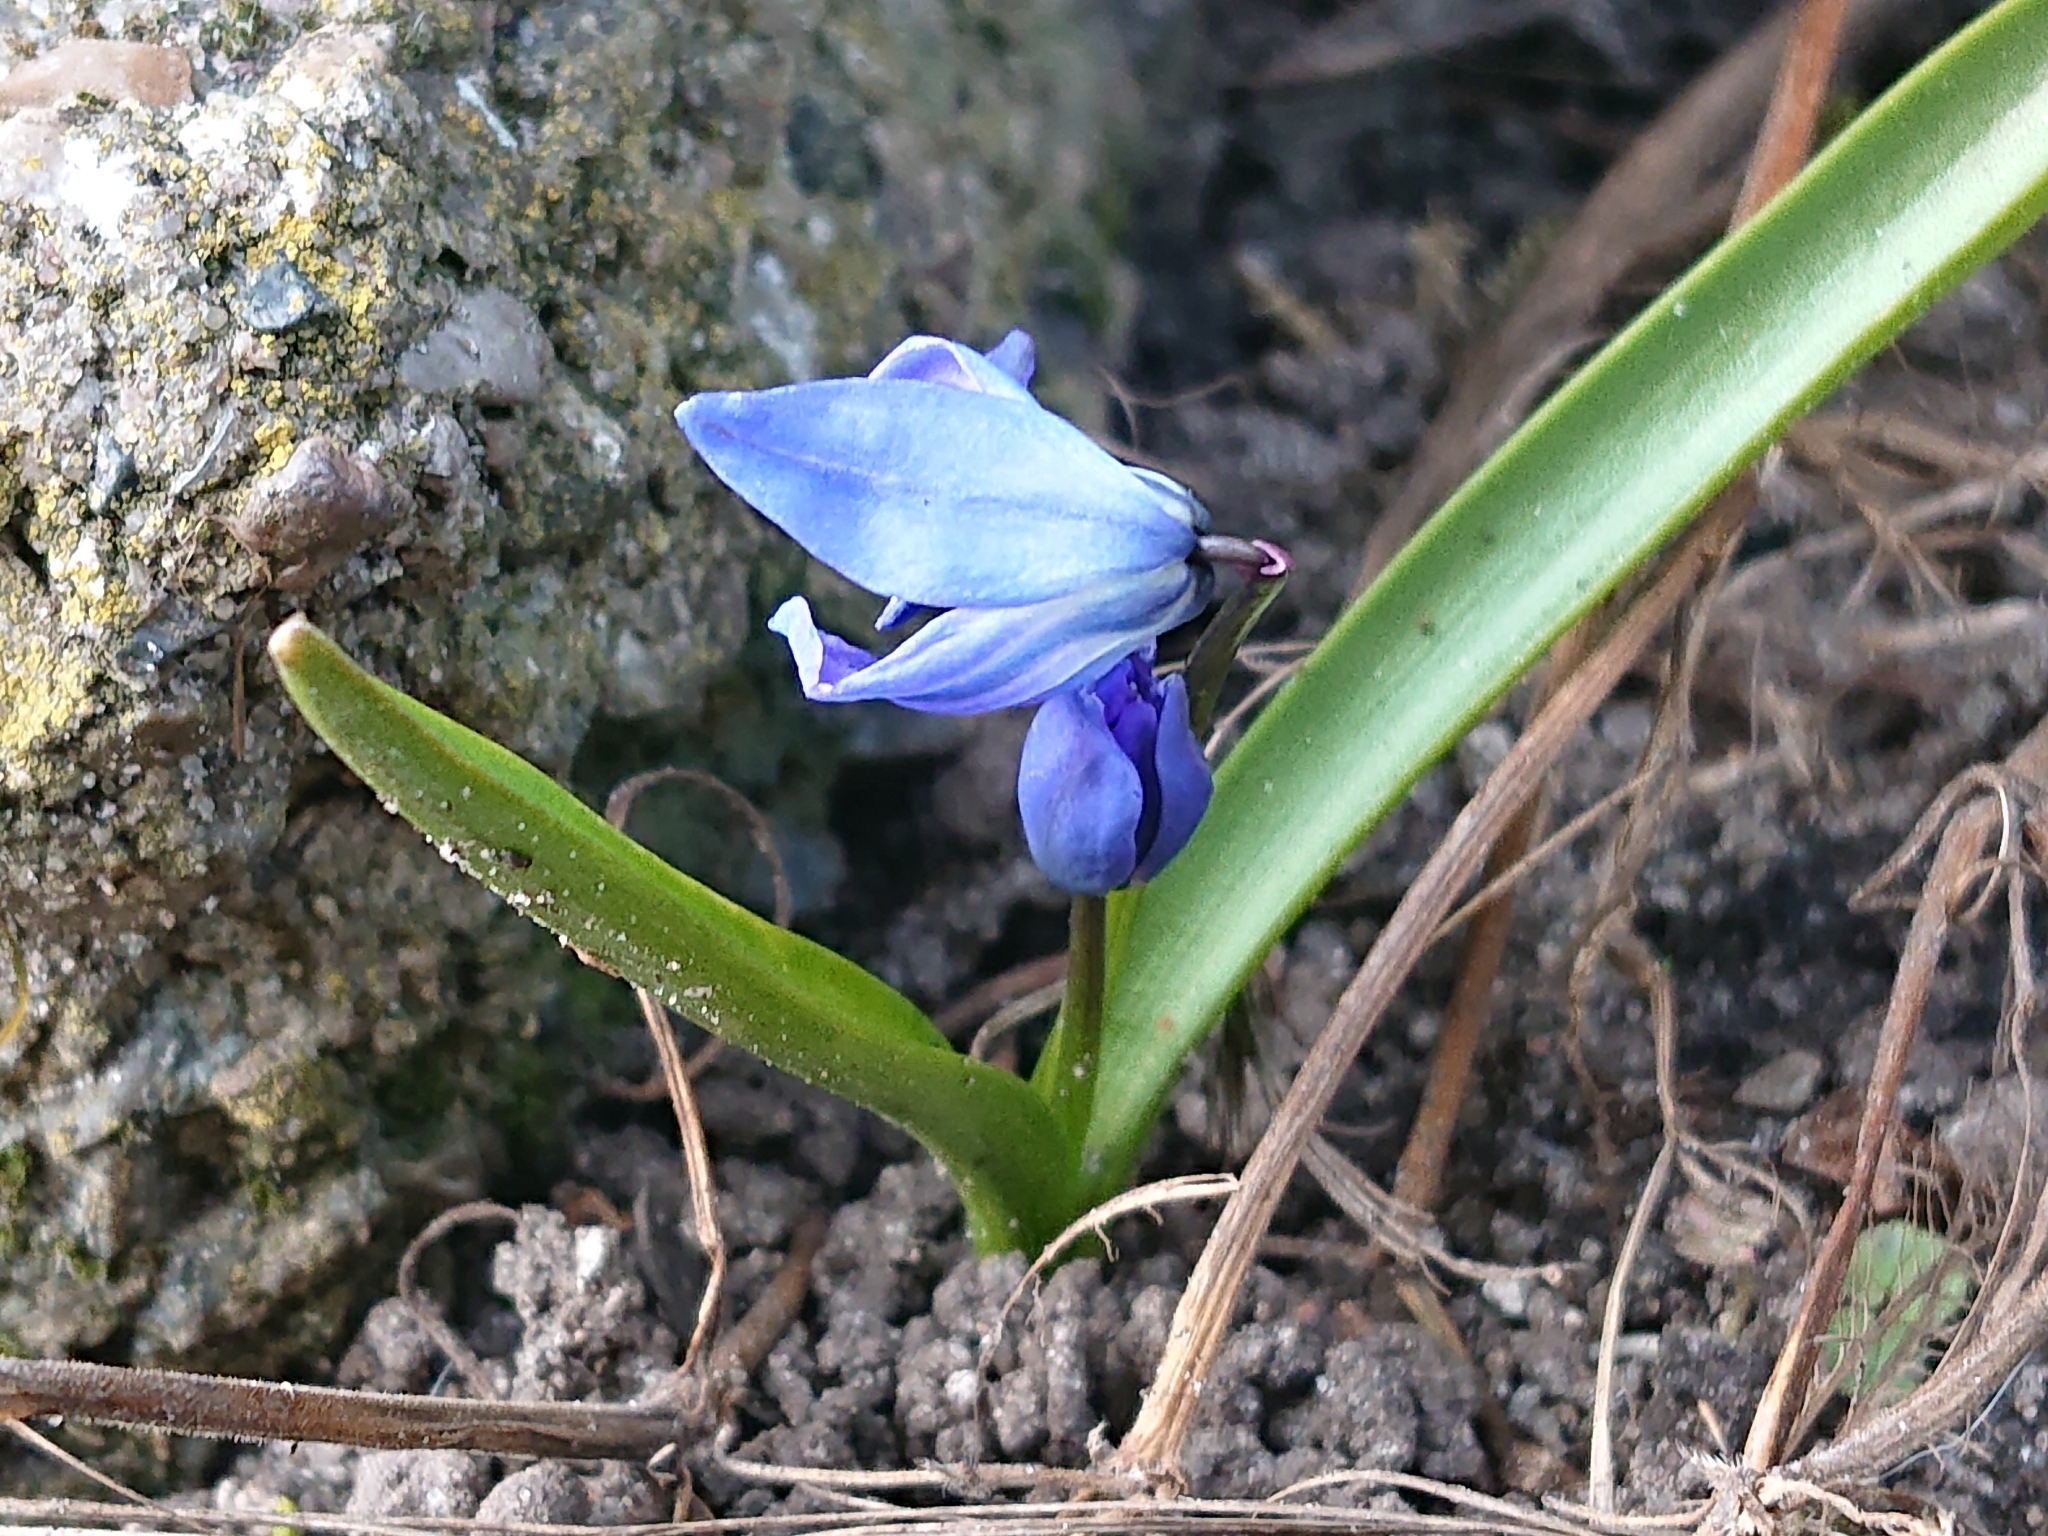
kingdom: Plantae
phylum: Tracheophyta
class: Liliopsida
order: Asparagales
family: Asparagaceae
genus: Scilla
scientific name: Scilla siberica
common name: Siberian squill
